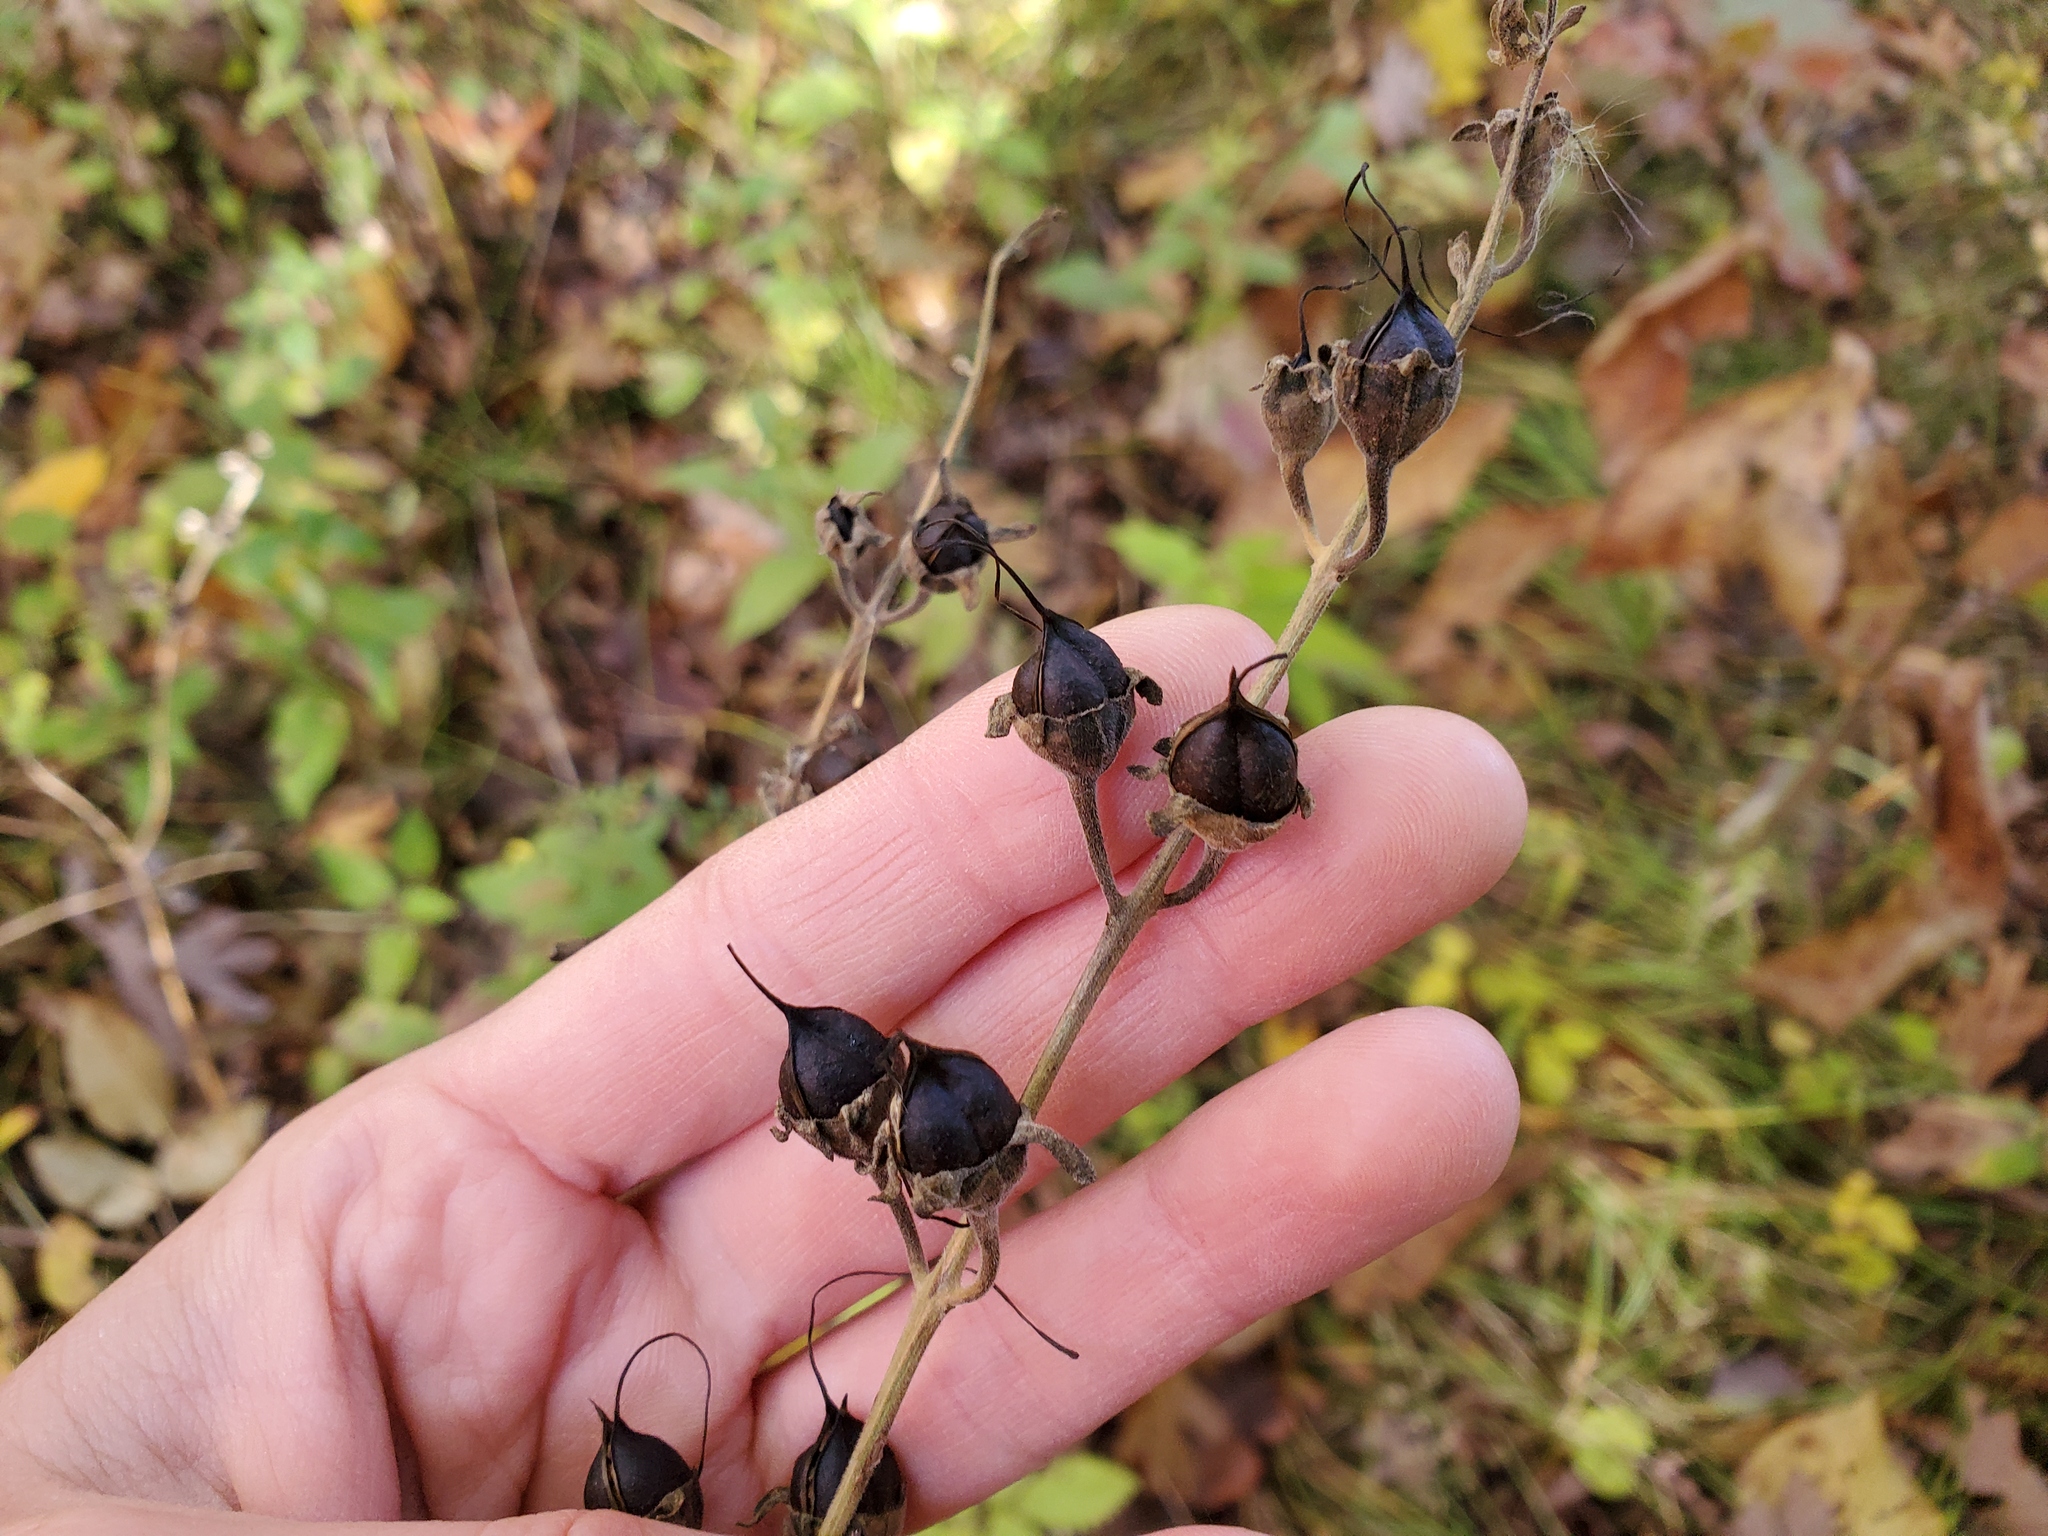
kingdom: Plantae
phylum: Tracheophyta
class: Magnoliopsida
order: Lamiales
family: Orobanchaceae
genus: Aureolaria
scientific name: Aureolaria grandiflora
